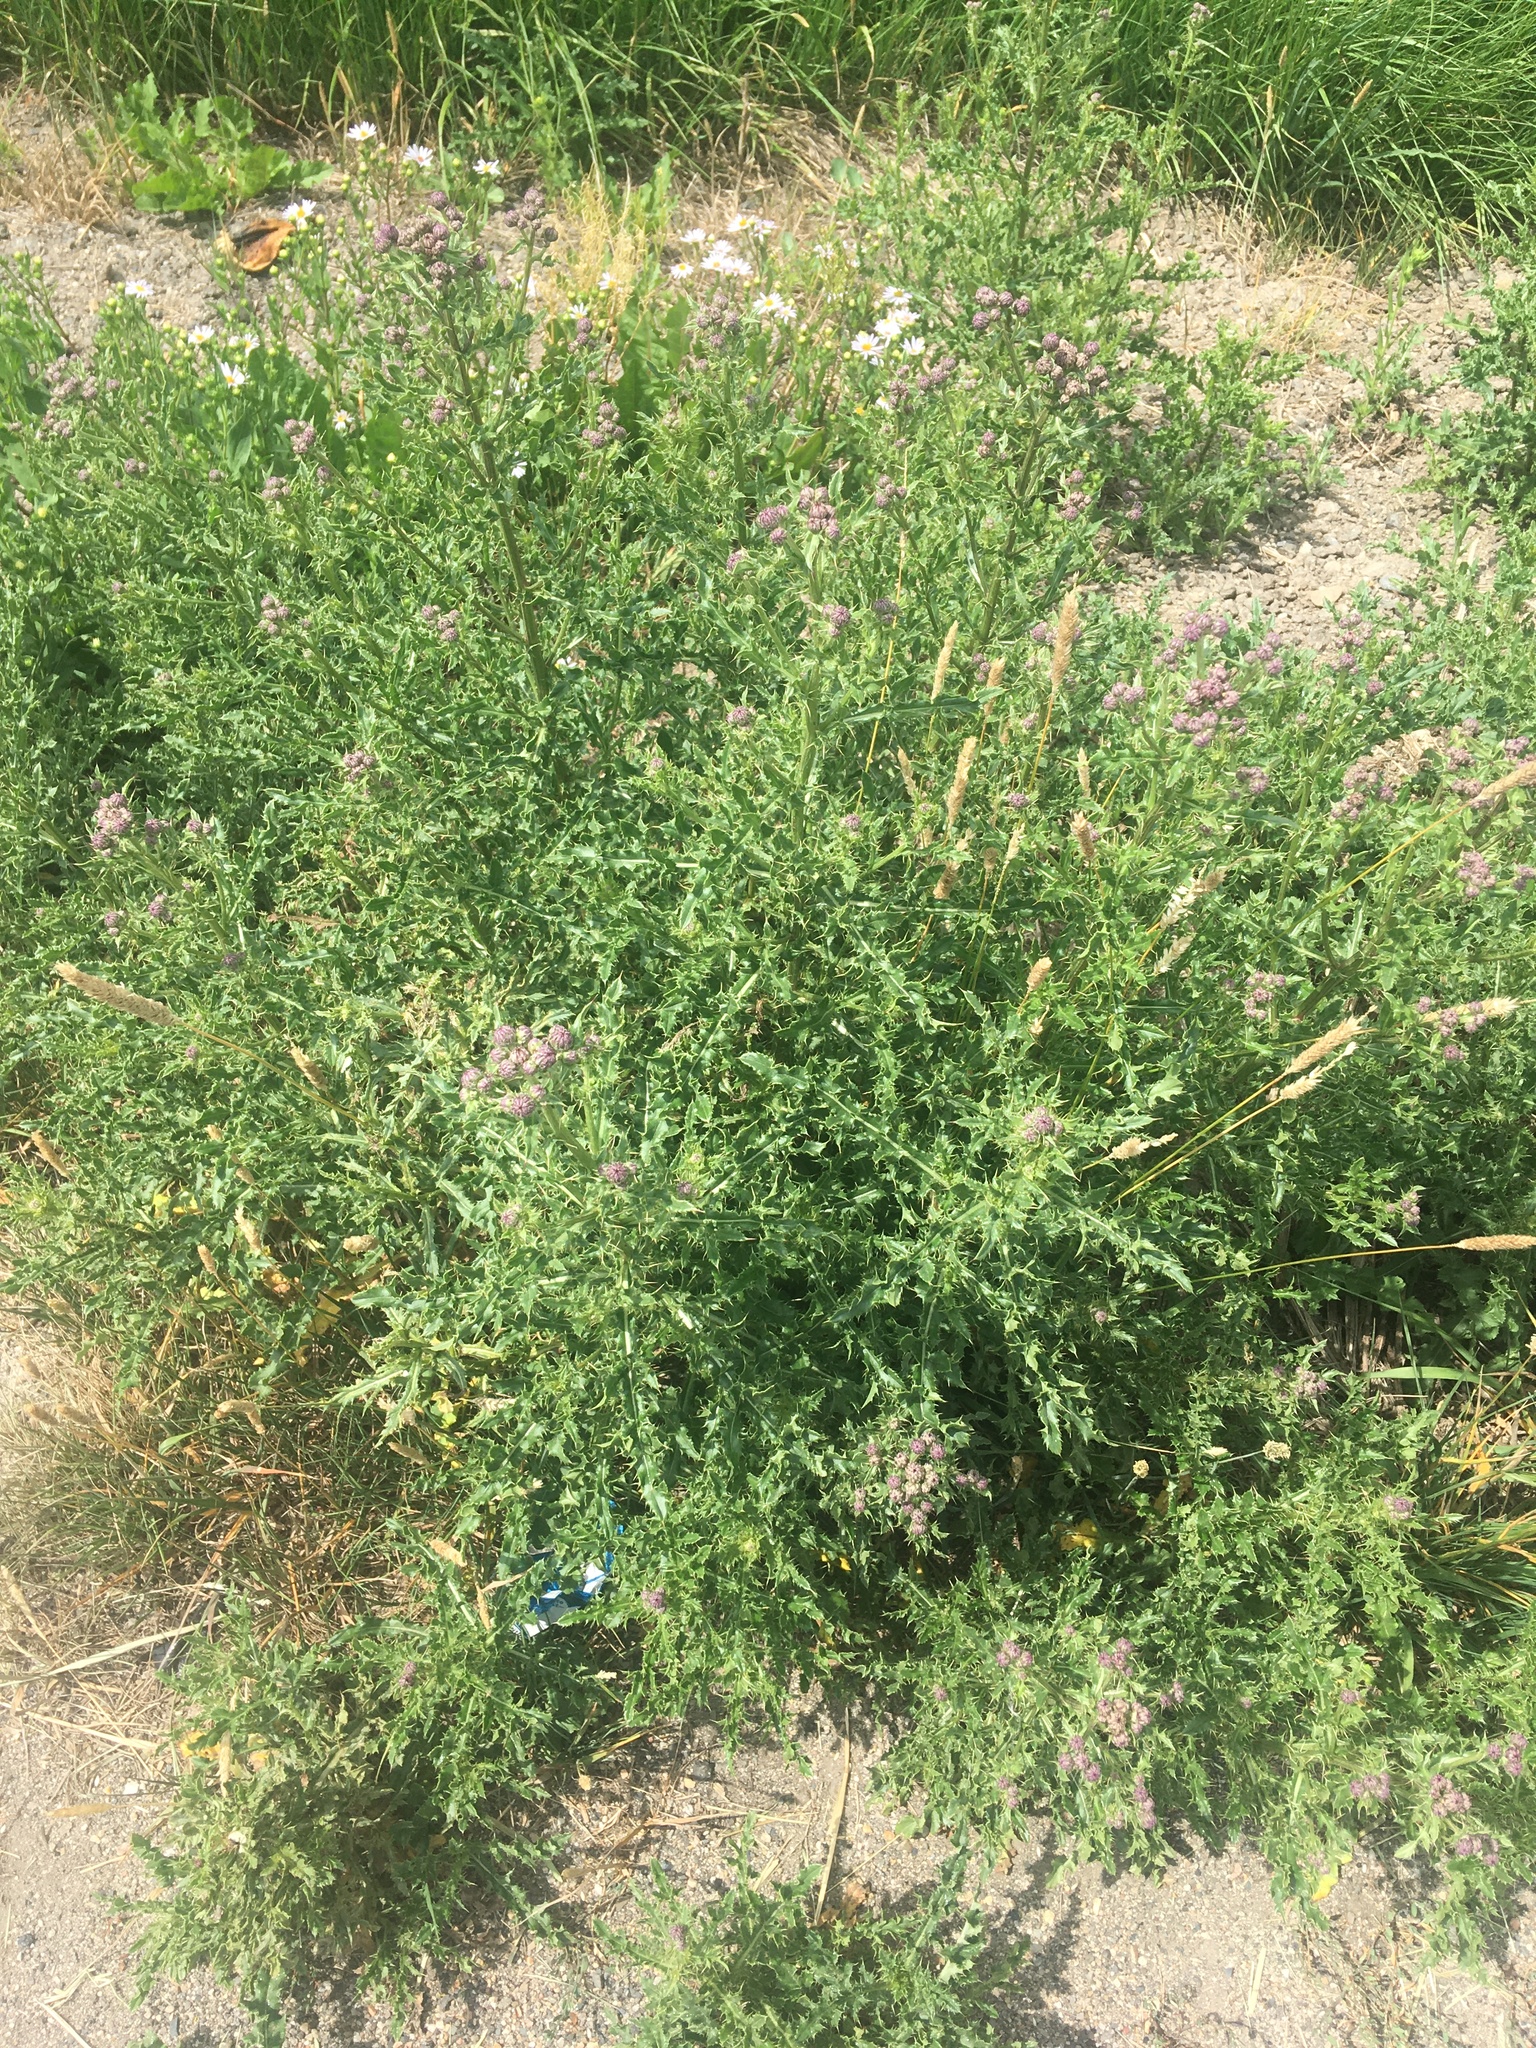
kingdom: Plantae
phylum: Tracheophyta
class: Magnoliopsida
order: Asterales
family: Asteraceae
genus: Cirsium
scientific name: Cirsium arvense
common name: Creeping thistle
